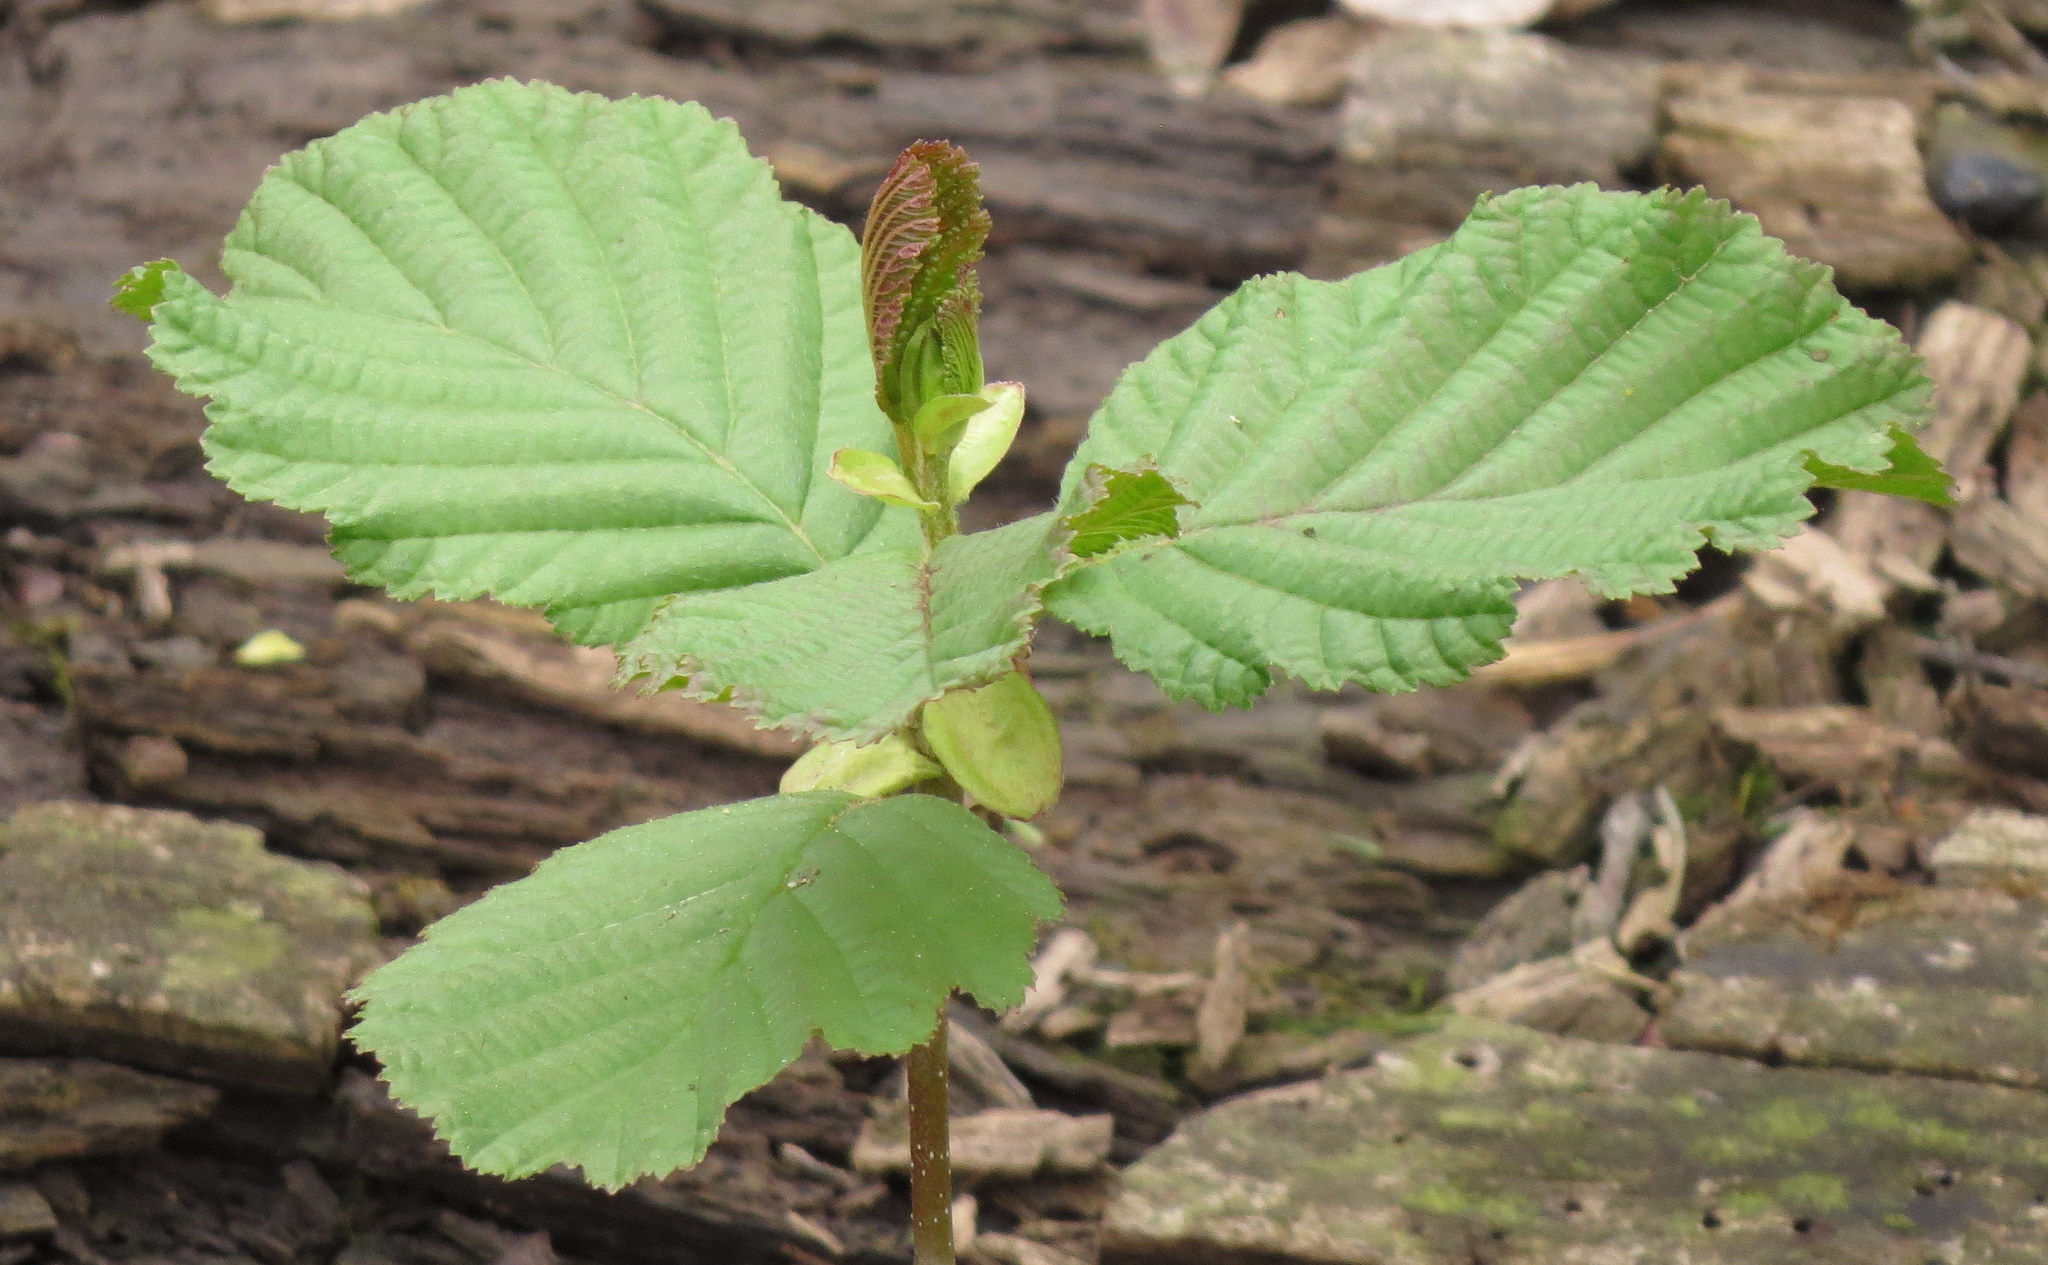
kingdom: Plantae
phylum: Tracheophyta
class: Magnoliopsida
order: Fagales
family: Betulaceae
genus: Alnus
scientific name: Alnus glutinosa
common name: Black alder
